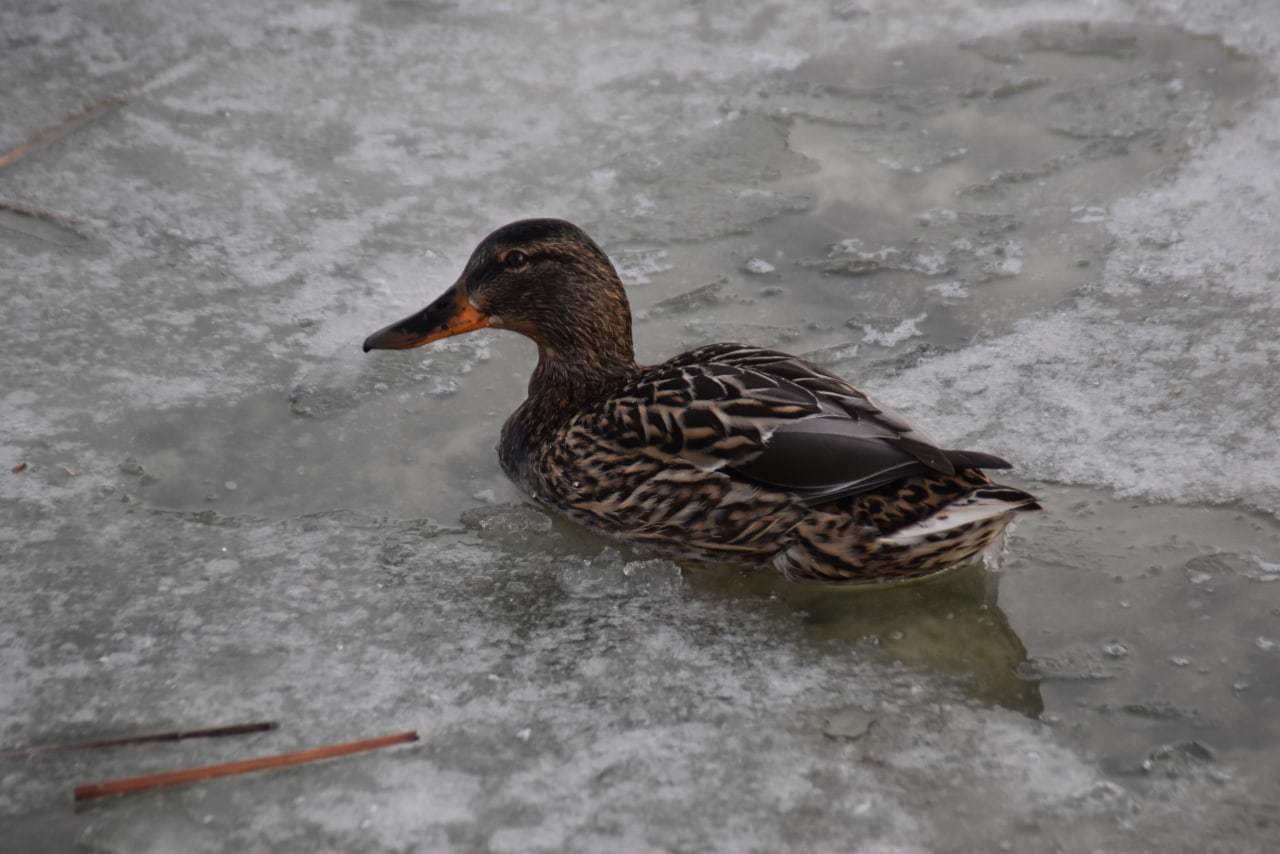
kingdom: Animalia
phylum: Chordata
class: Aves
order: Anseriformes
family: Anatidae
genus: Anas
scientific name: Anas platyrhynchos
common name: Mallard
